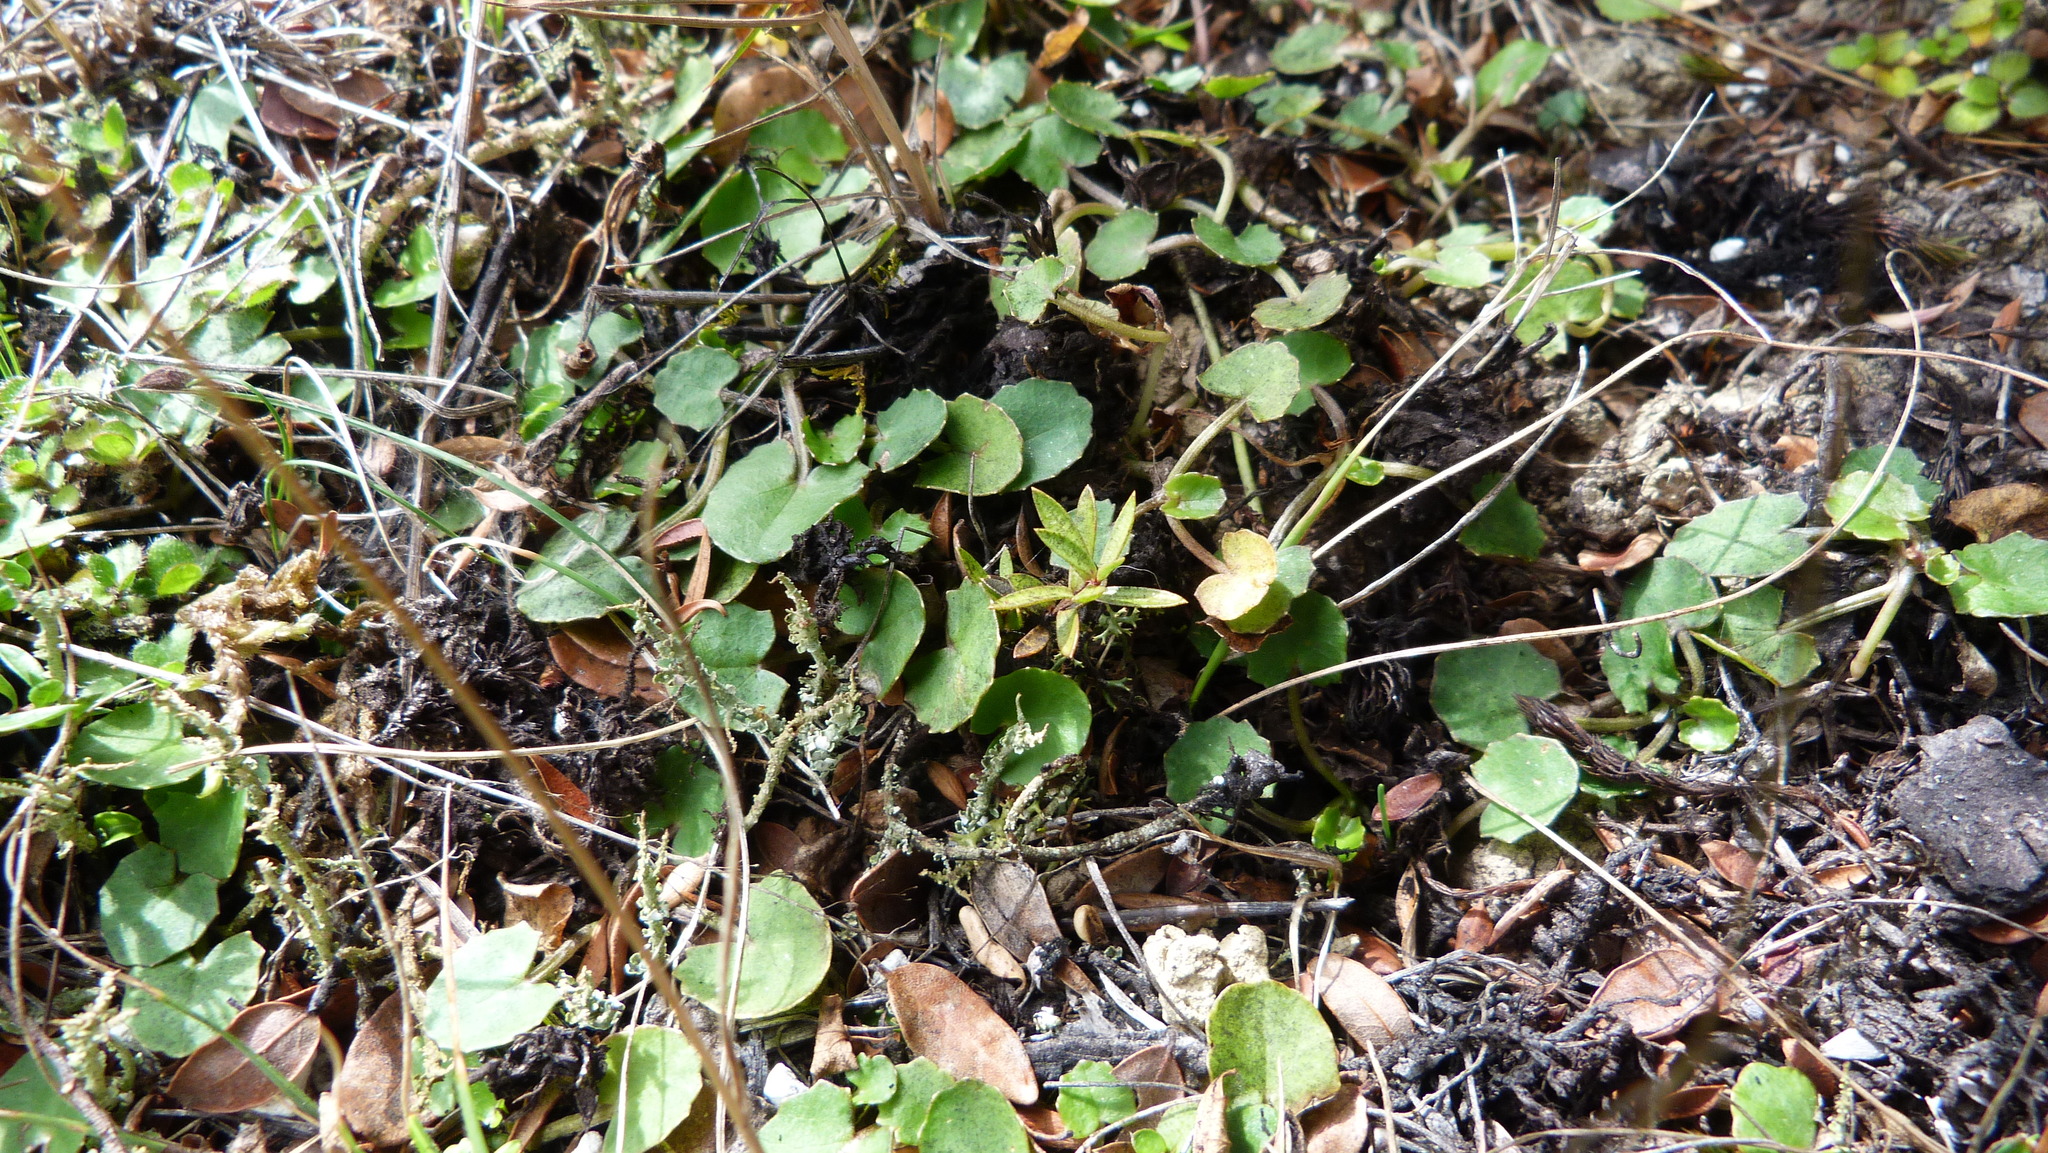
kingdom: Plantae
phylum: Tracheophyta
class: Magnoliopsida
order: Apiales
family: Apiaceae
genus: Centella
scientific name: Centella uniflora
